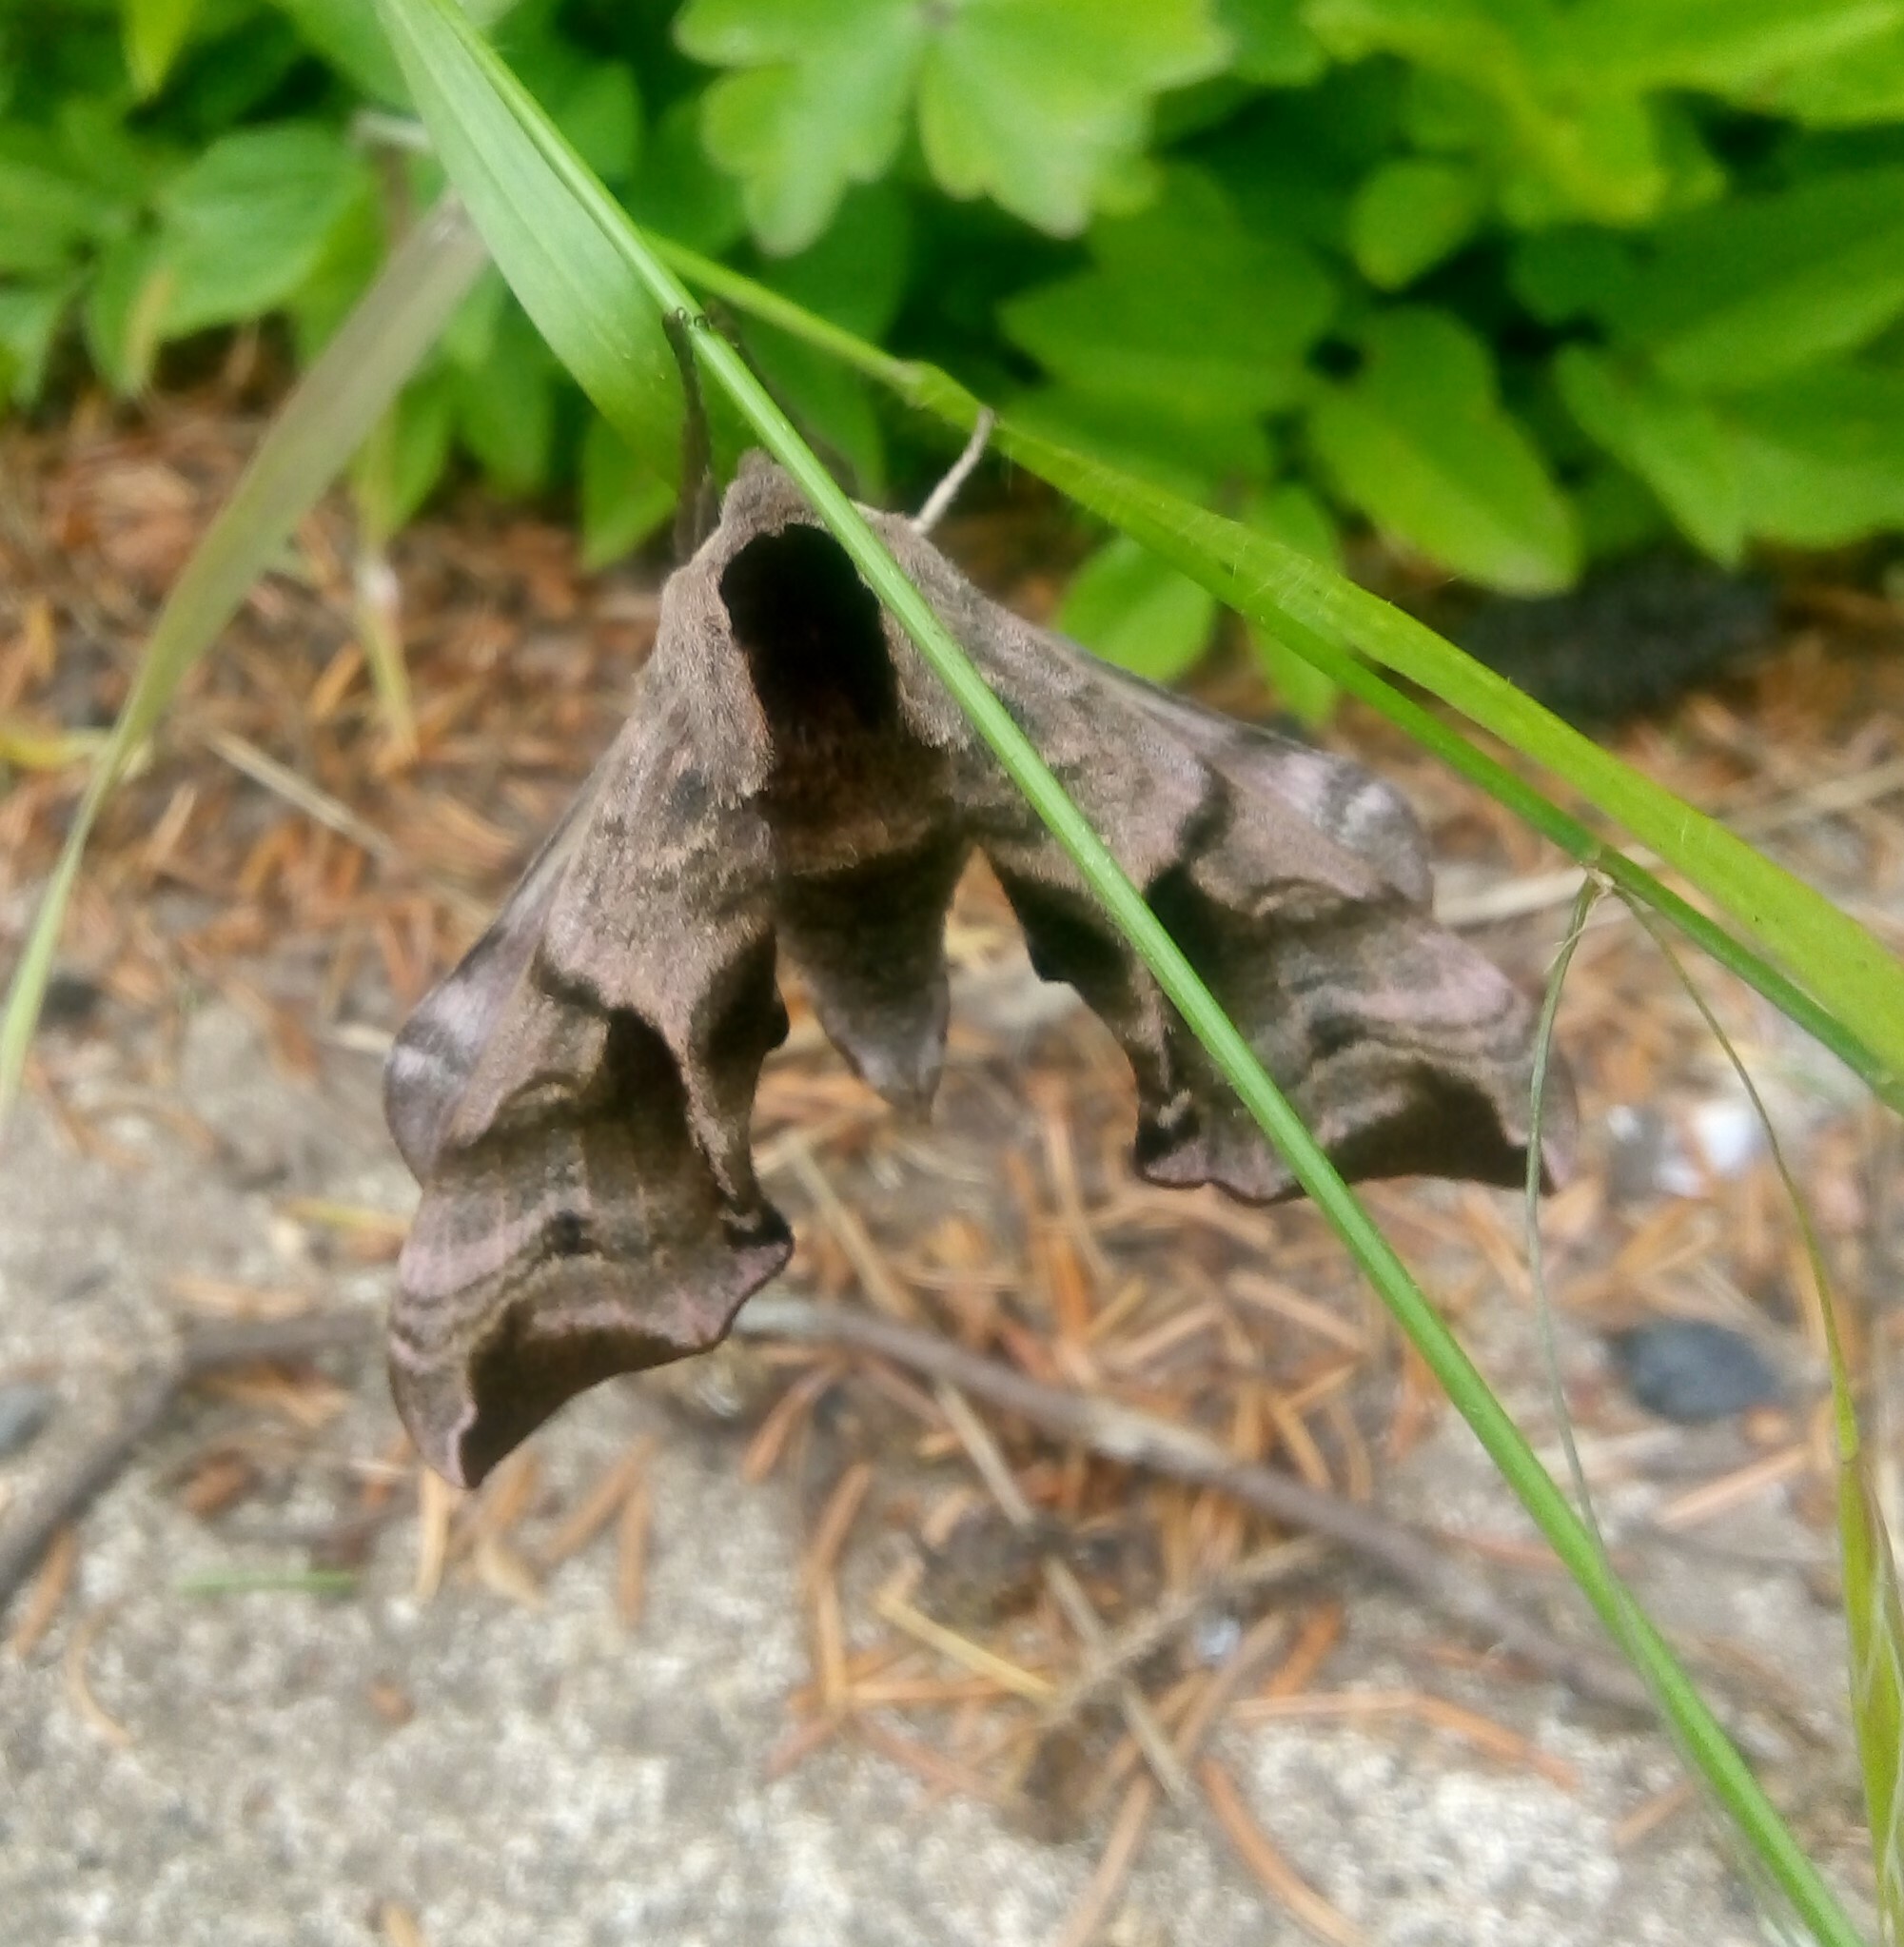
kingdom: Animalia
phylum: Arthropoda
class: Insecta
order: Lepidoptera
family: Sphingidae
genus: Smerinthus
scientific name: Smerinthus ocellata
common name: Eyed hawk-moth
